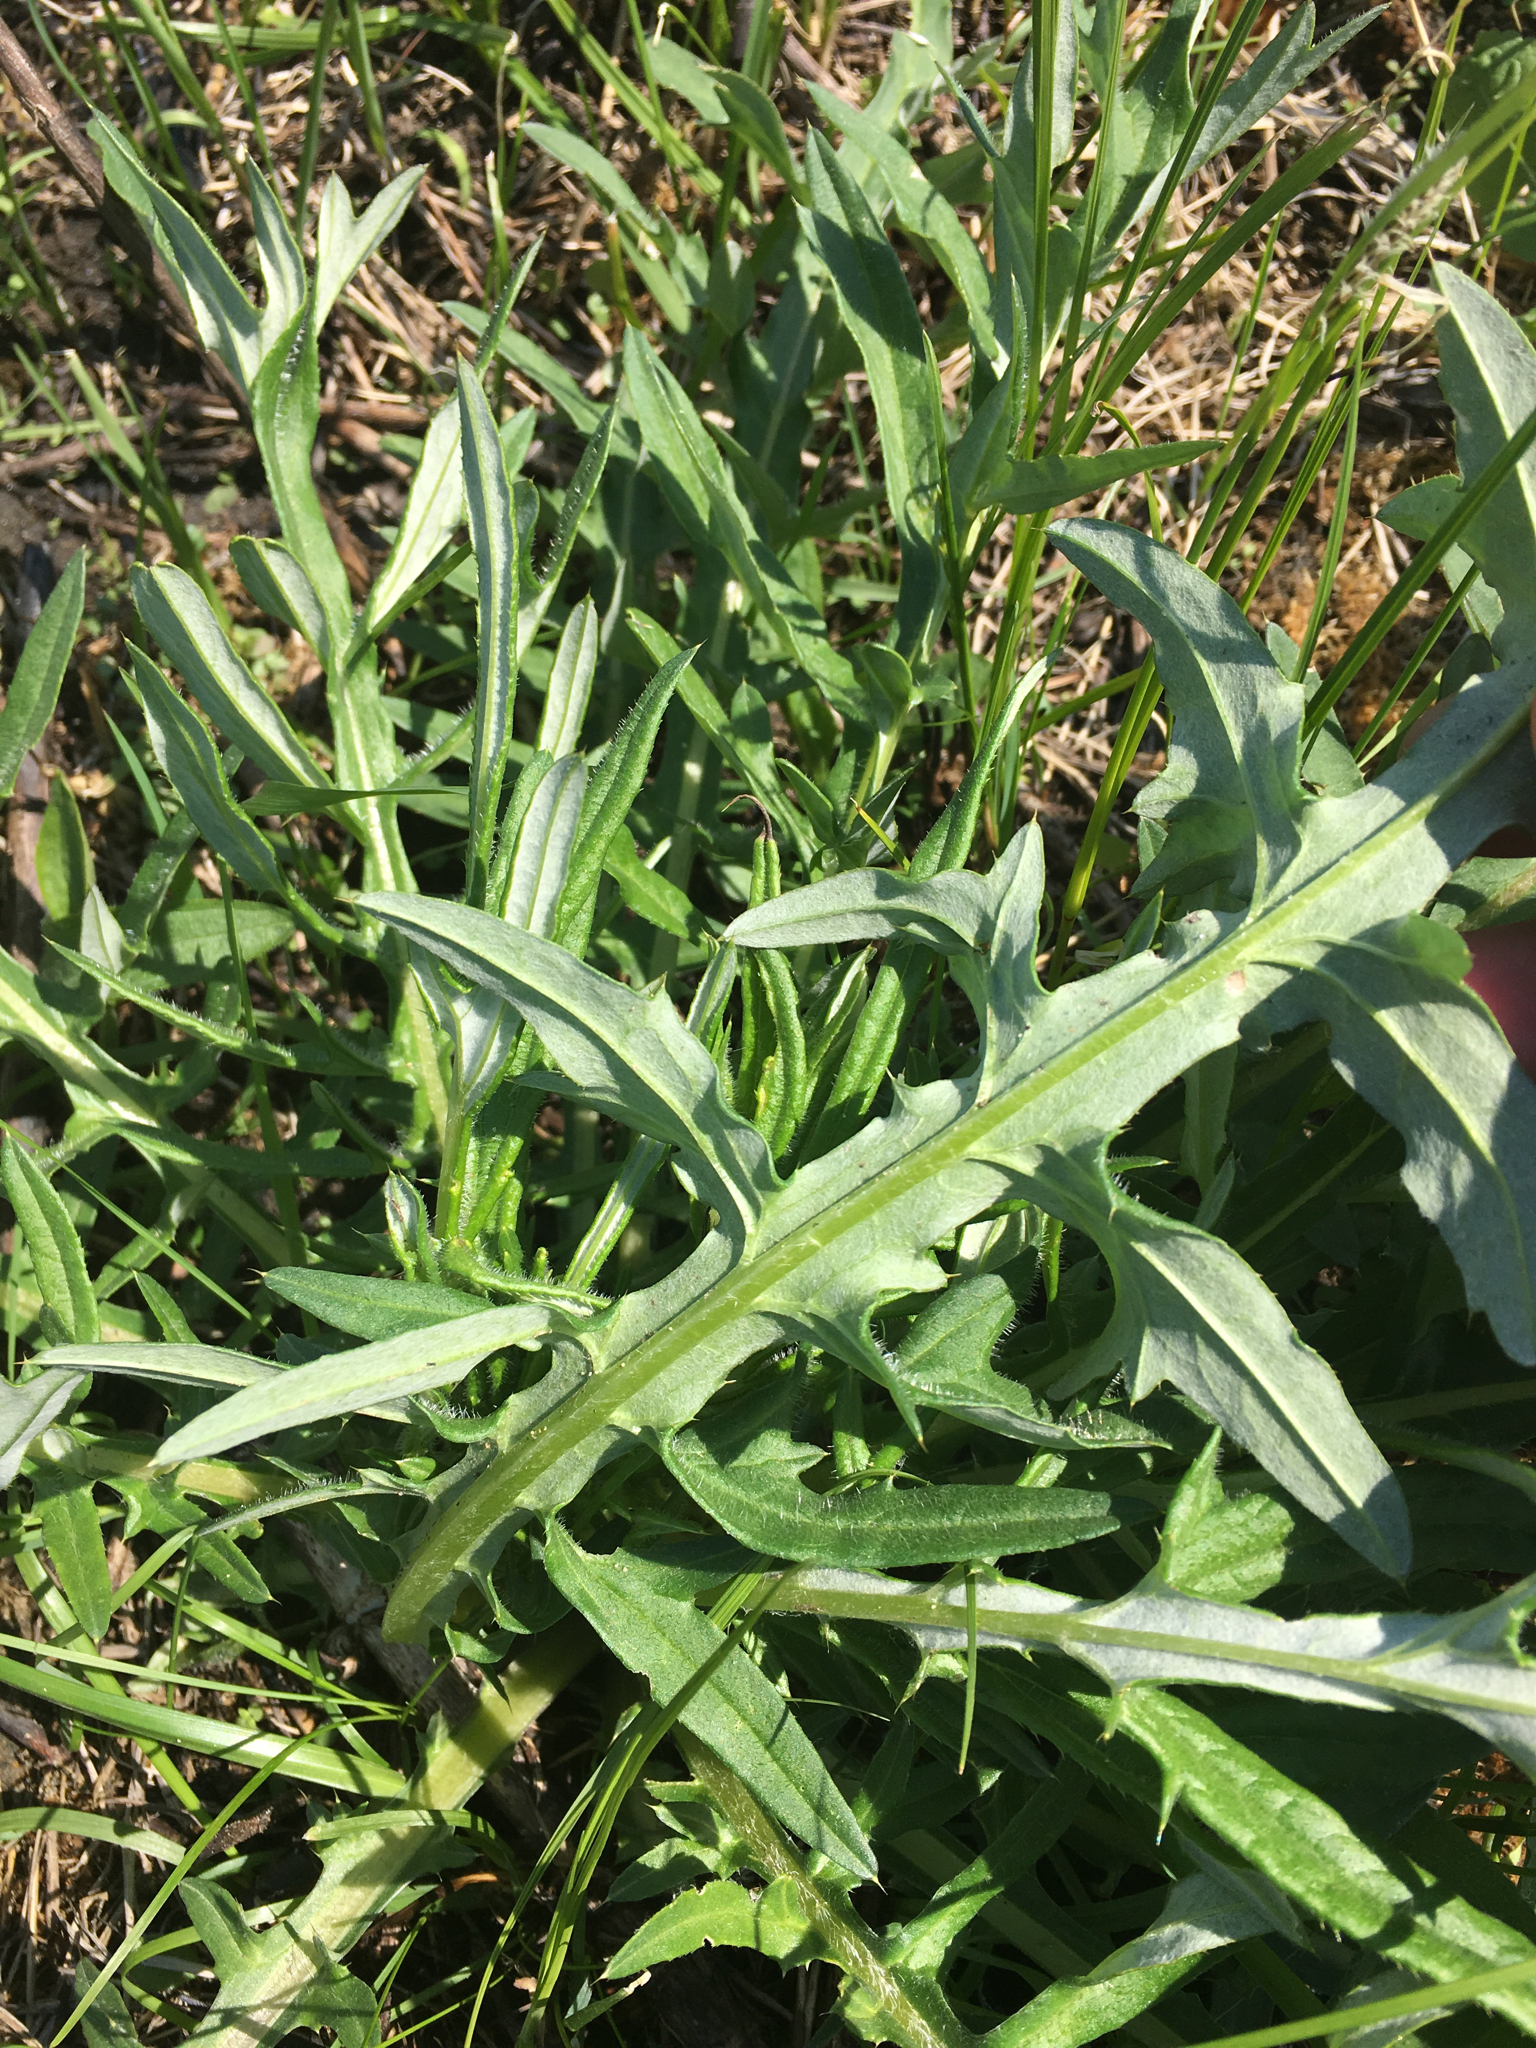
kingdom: Plantae
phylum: Tracheophyta
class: Magnoliopsida
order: Asterales
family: Asteraceae
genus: Cirsium
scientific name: Cirsium discolor
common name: Field thistle
